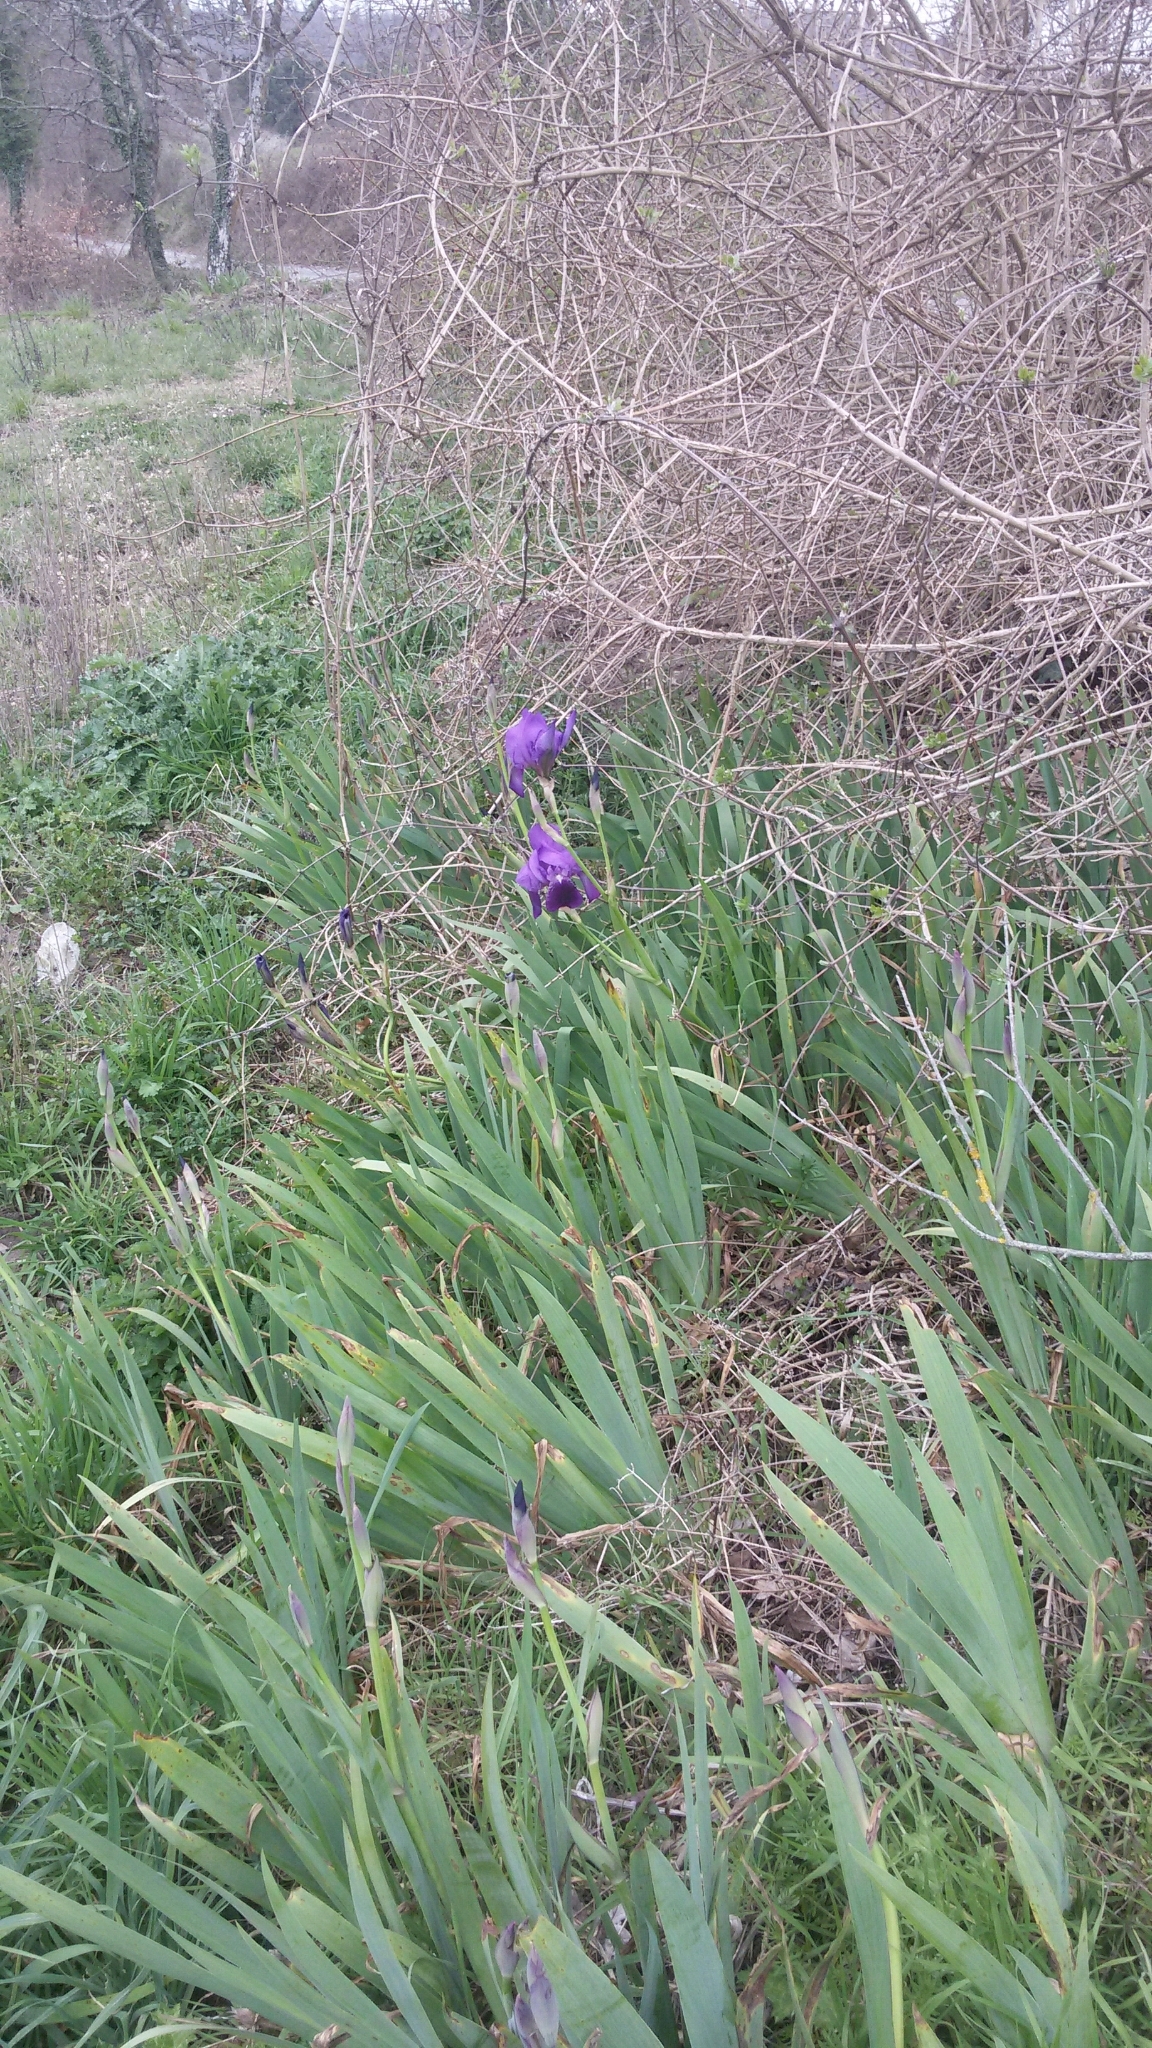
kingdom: Plantae
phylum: Tracheophyta
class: Liliopsida
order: Asparagales
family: Iridaceae
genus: Iris
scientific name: Iris germanica
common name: German iris
